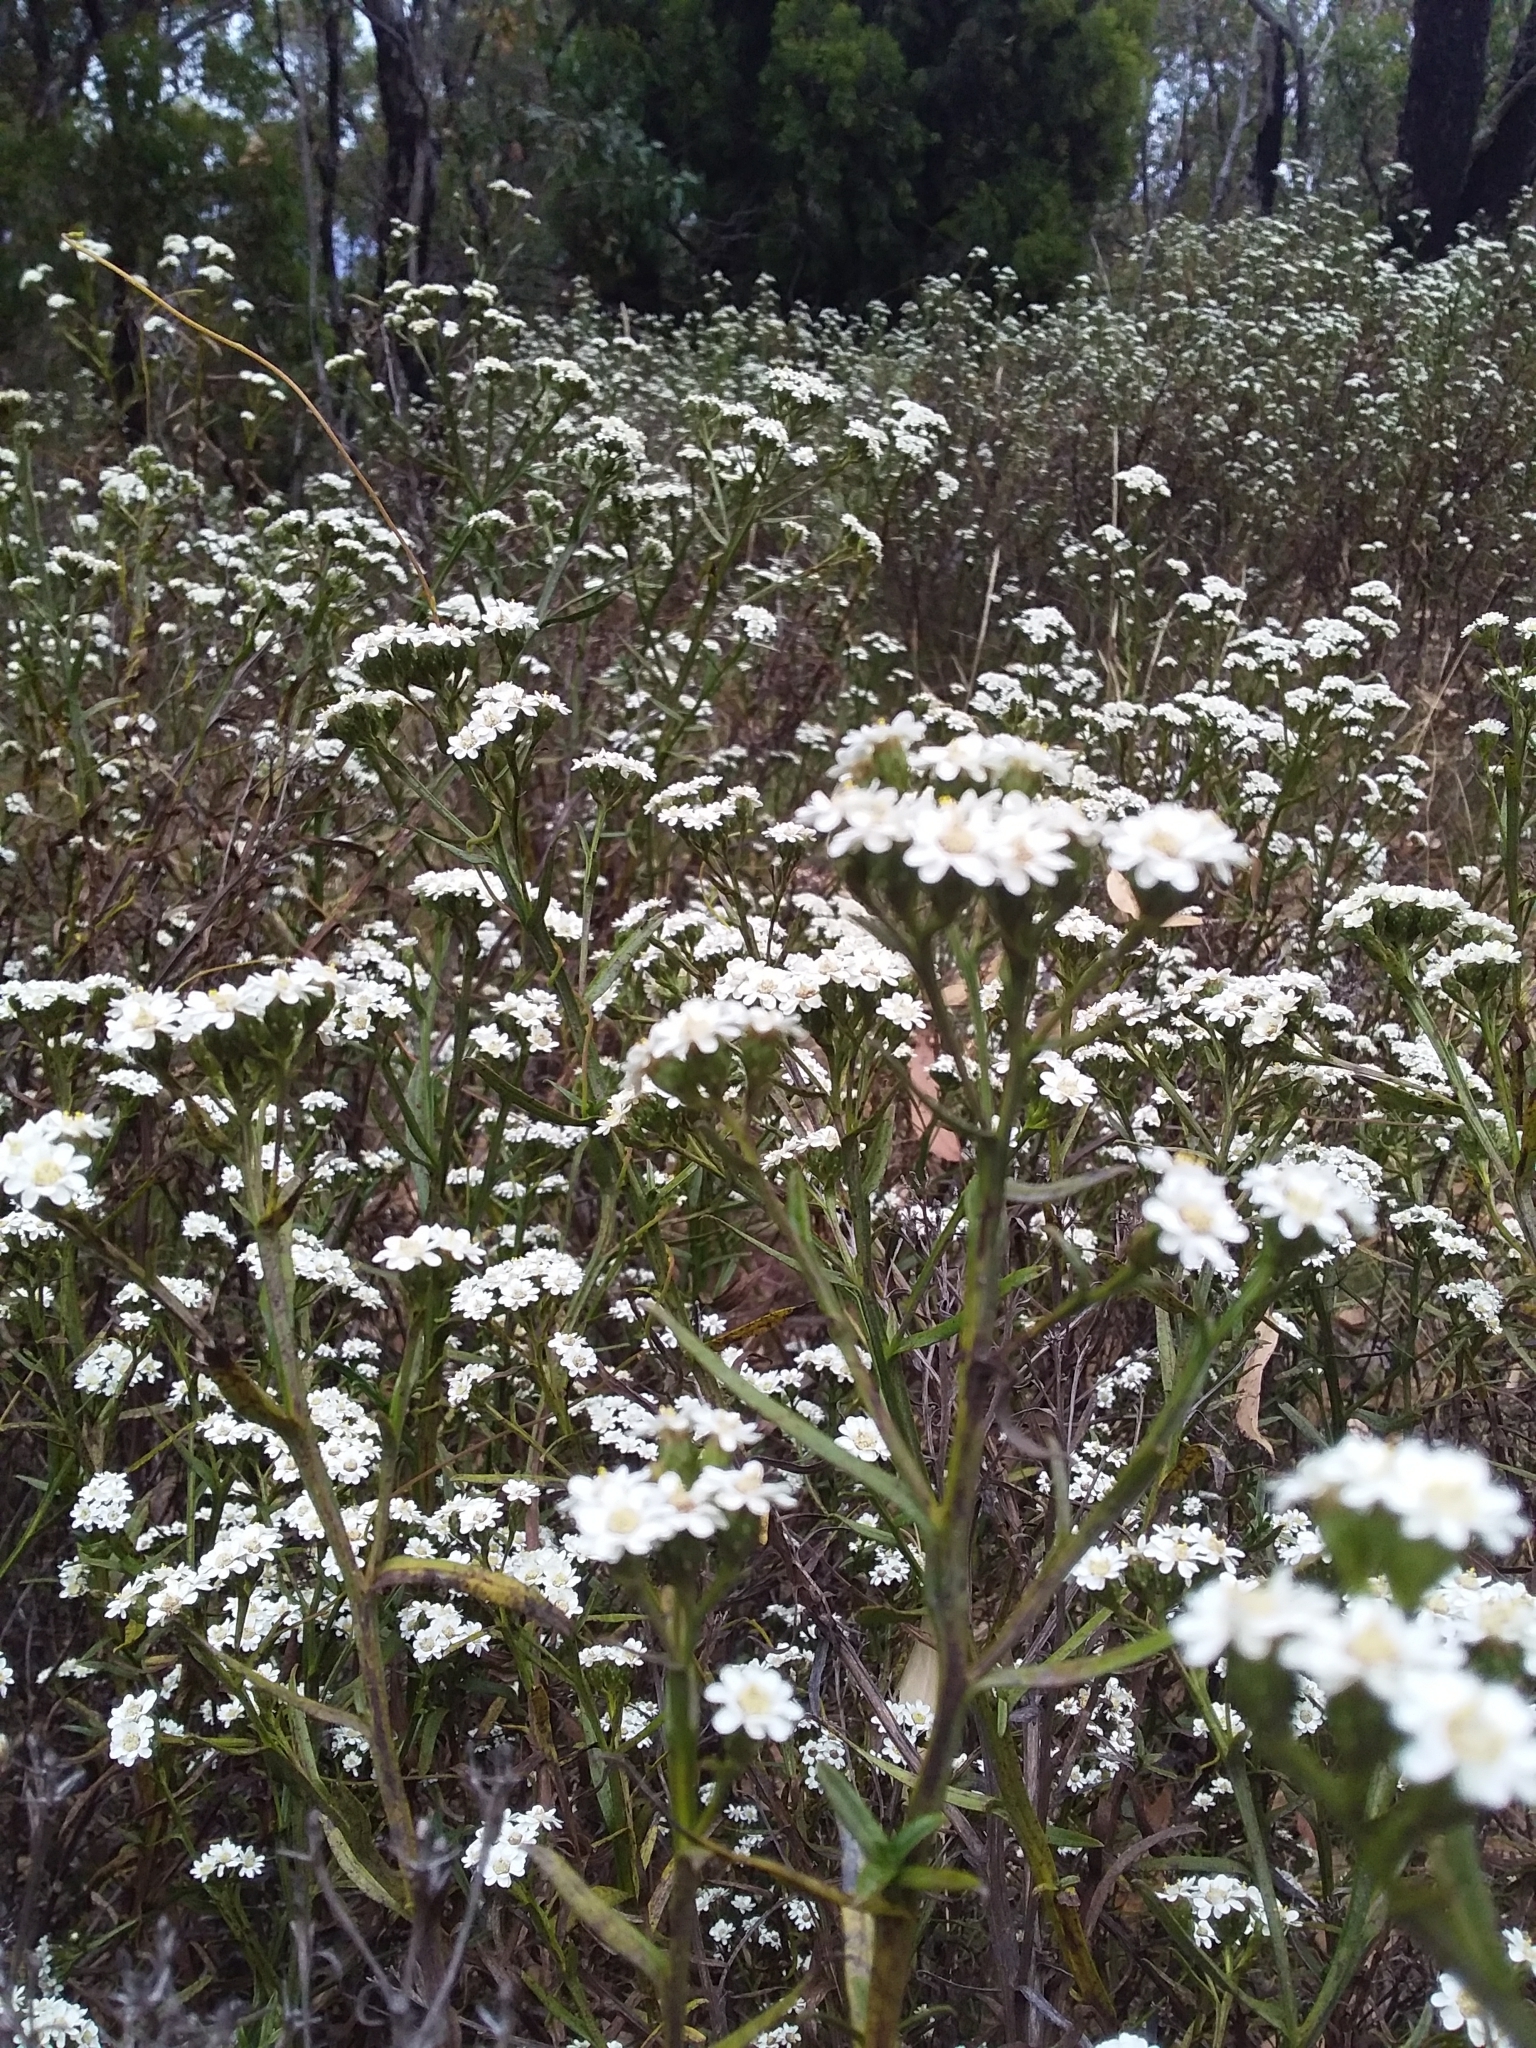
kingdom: Plantae
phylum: Tracheophyta
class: Magnoliopsida
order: Asterales
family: Asteraceae
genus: Ixodia
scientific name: Ixodia achillaeoides
